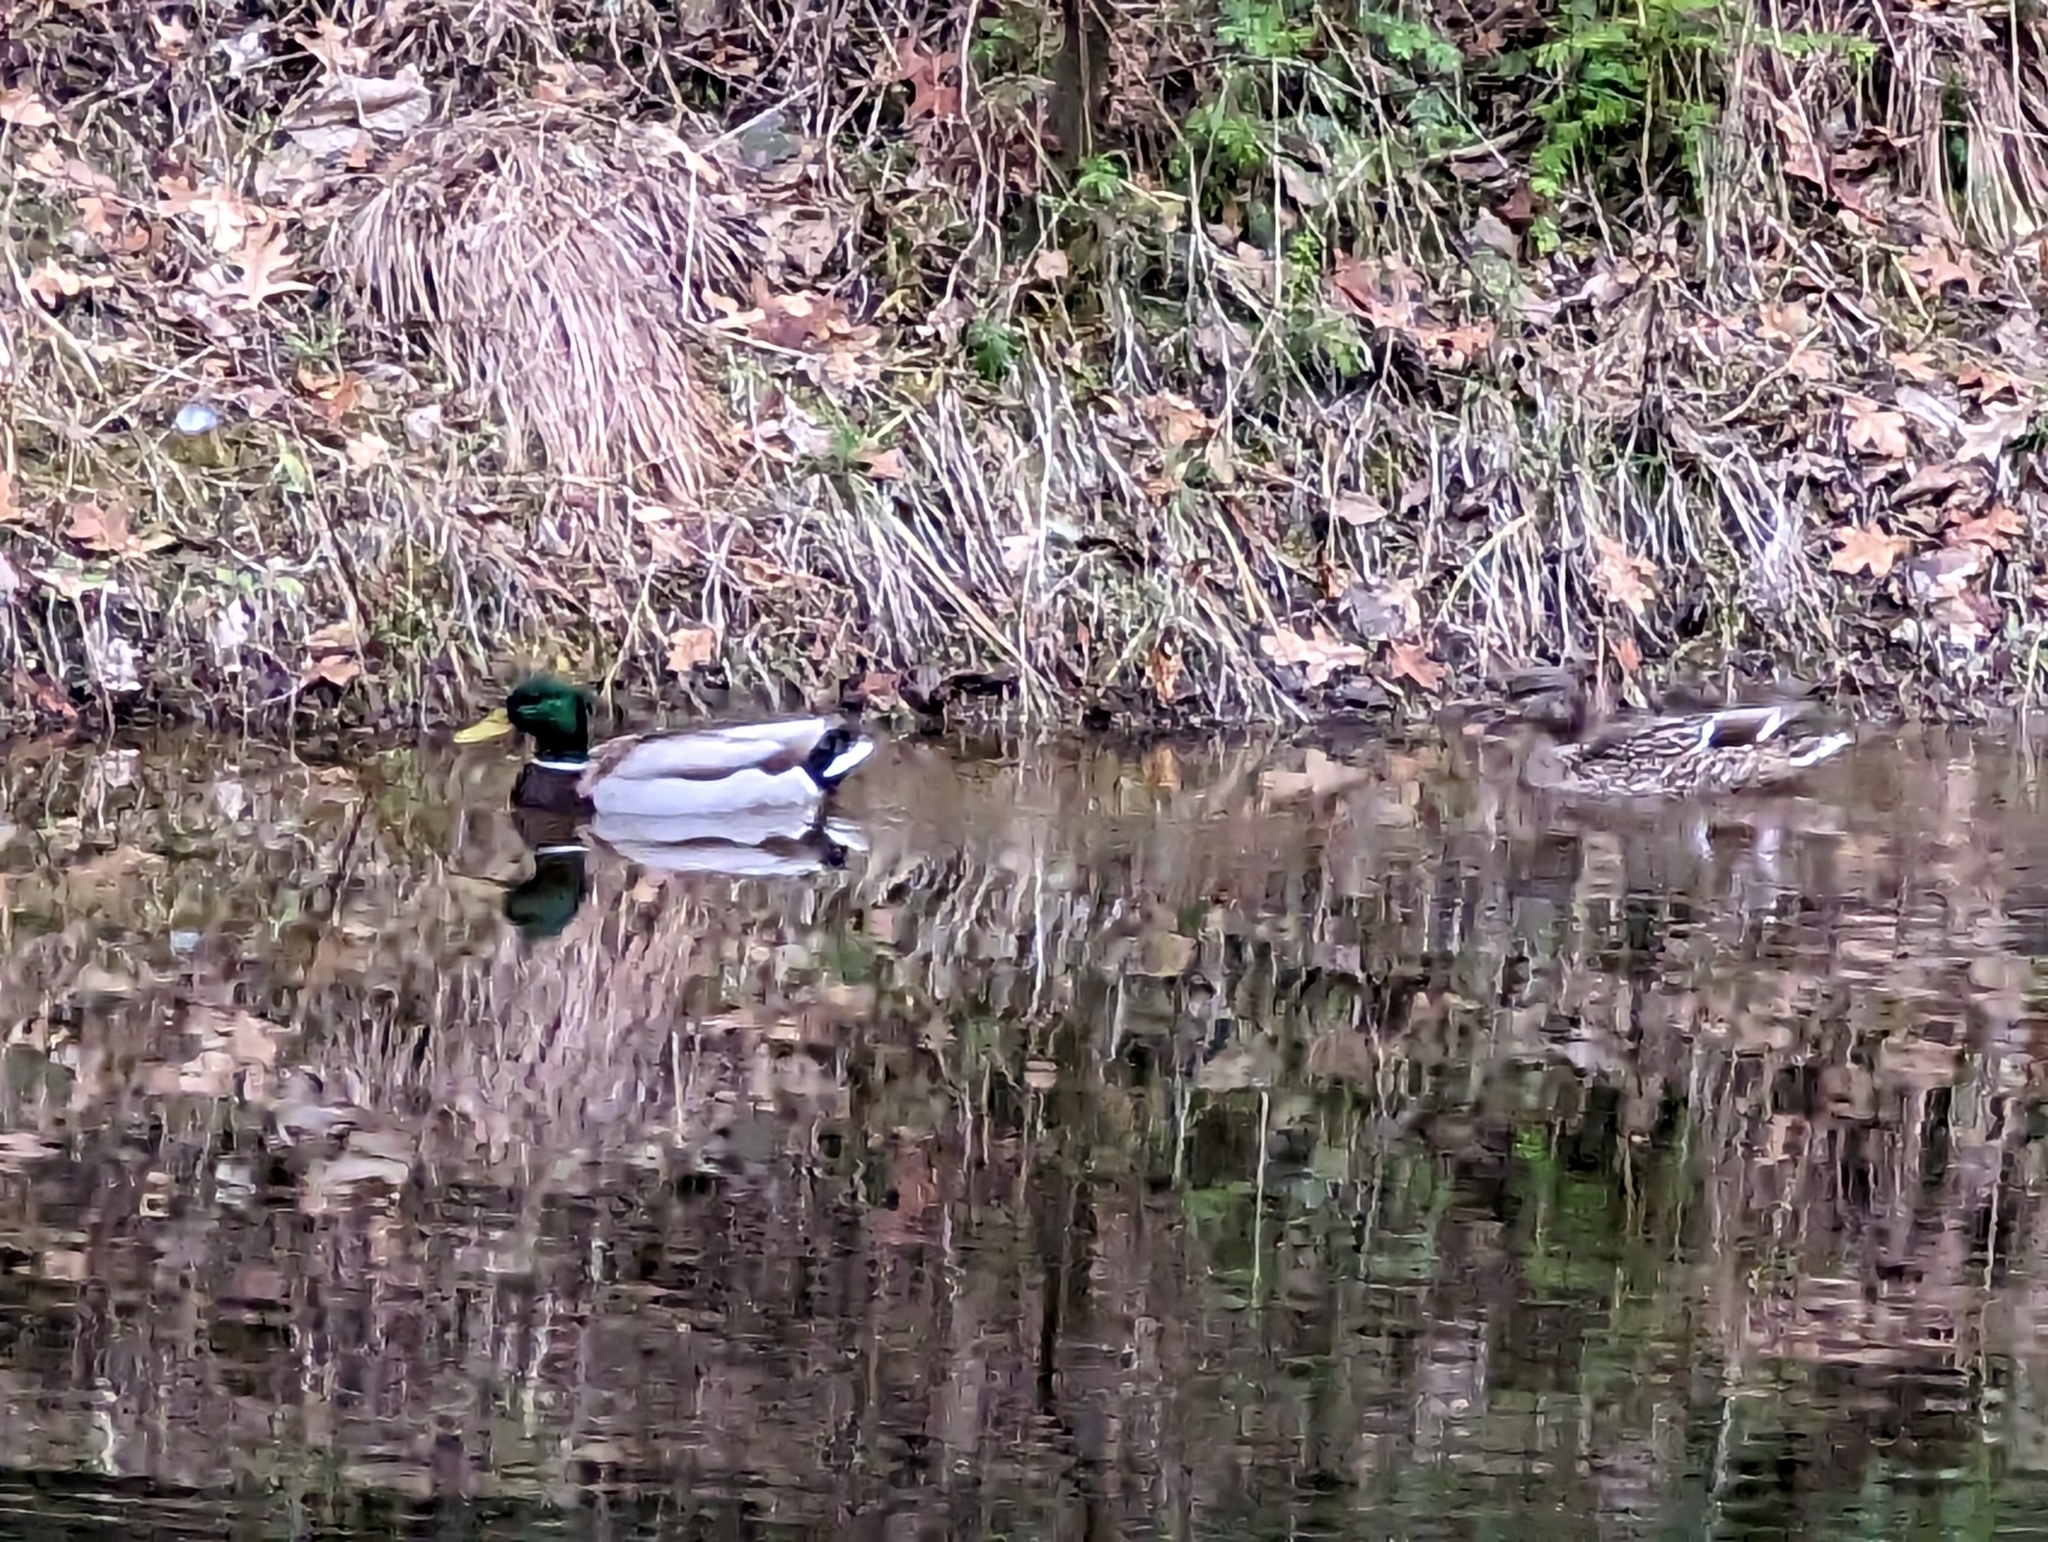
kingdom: Animalia
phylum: Chordata
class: Aves
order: Anseriformes
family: Anatidae
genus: Anas
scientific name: Anas platyrhynchos
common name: Mallard
